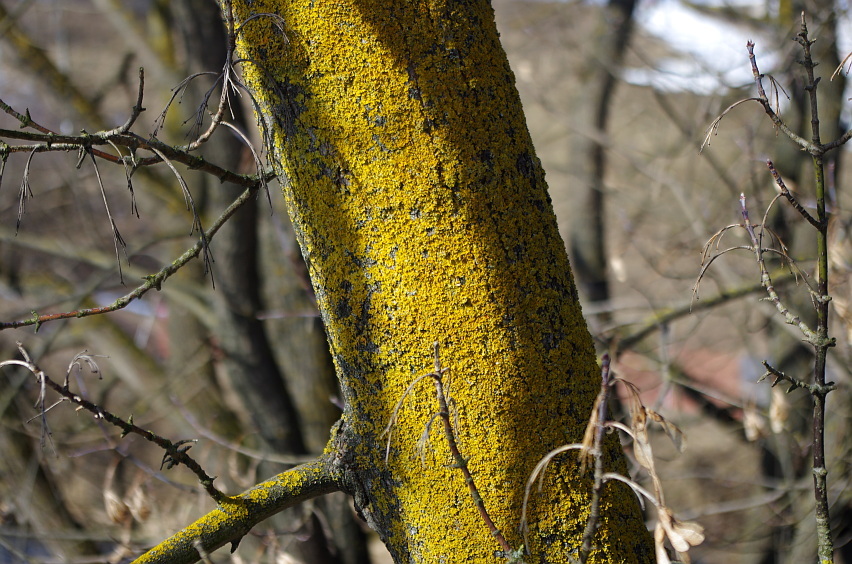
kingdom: Fungi
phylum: Ascomycota
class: Lecanoromycetes
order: Teloschistales
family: Teloschistaceae
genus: Xanthoria
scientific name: Xanthoria parietina
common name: Common orange lichen
